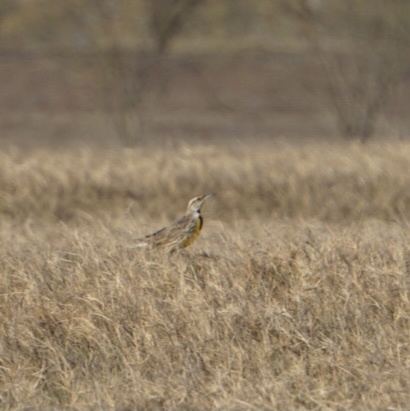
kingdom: Animalia
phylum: Chordata
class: Aves
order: Passeriformes
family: Icteridae
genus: Sturnella
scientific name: Sturnella
